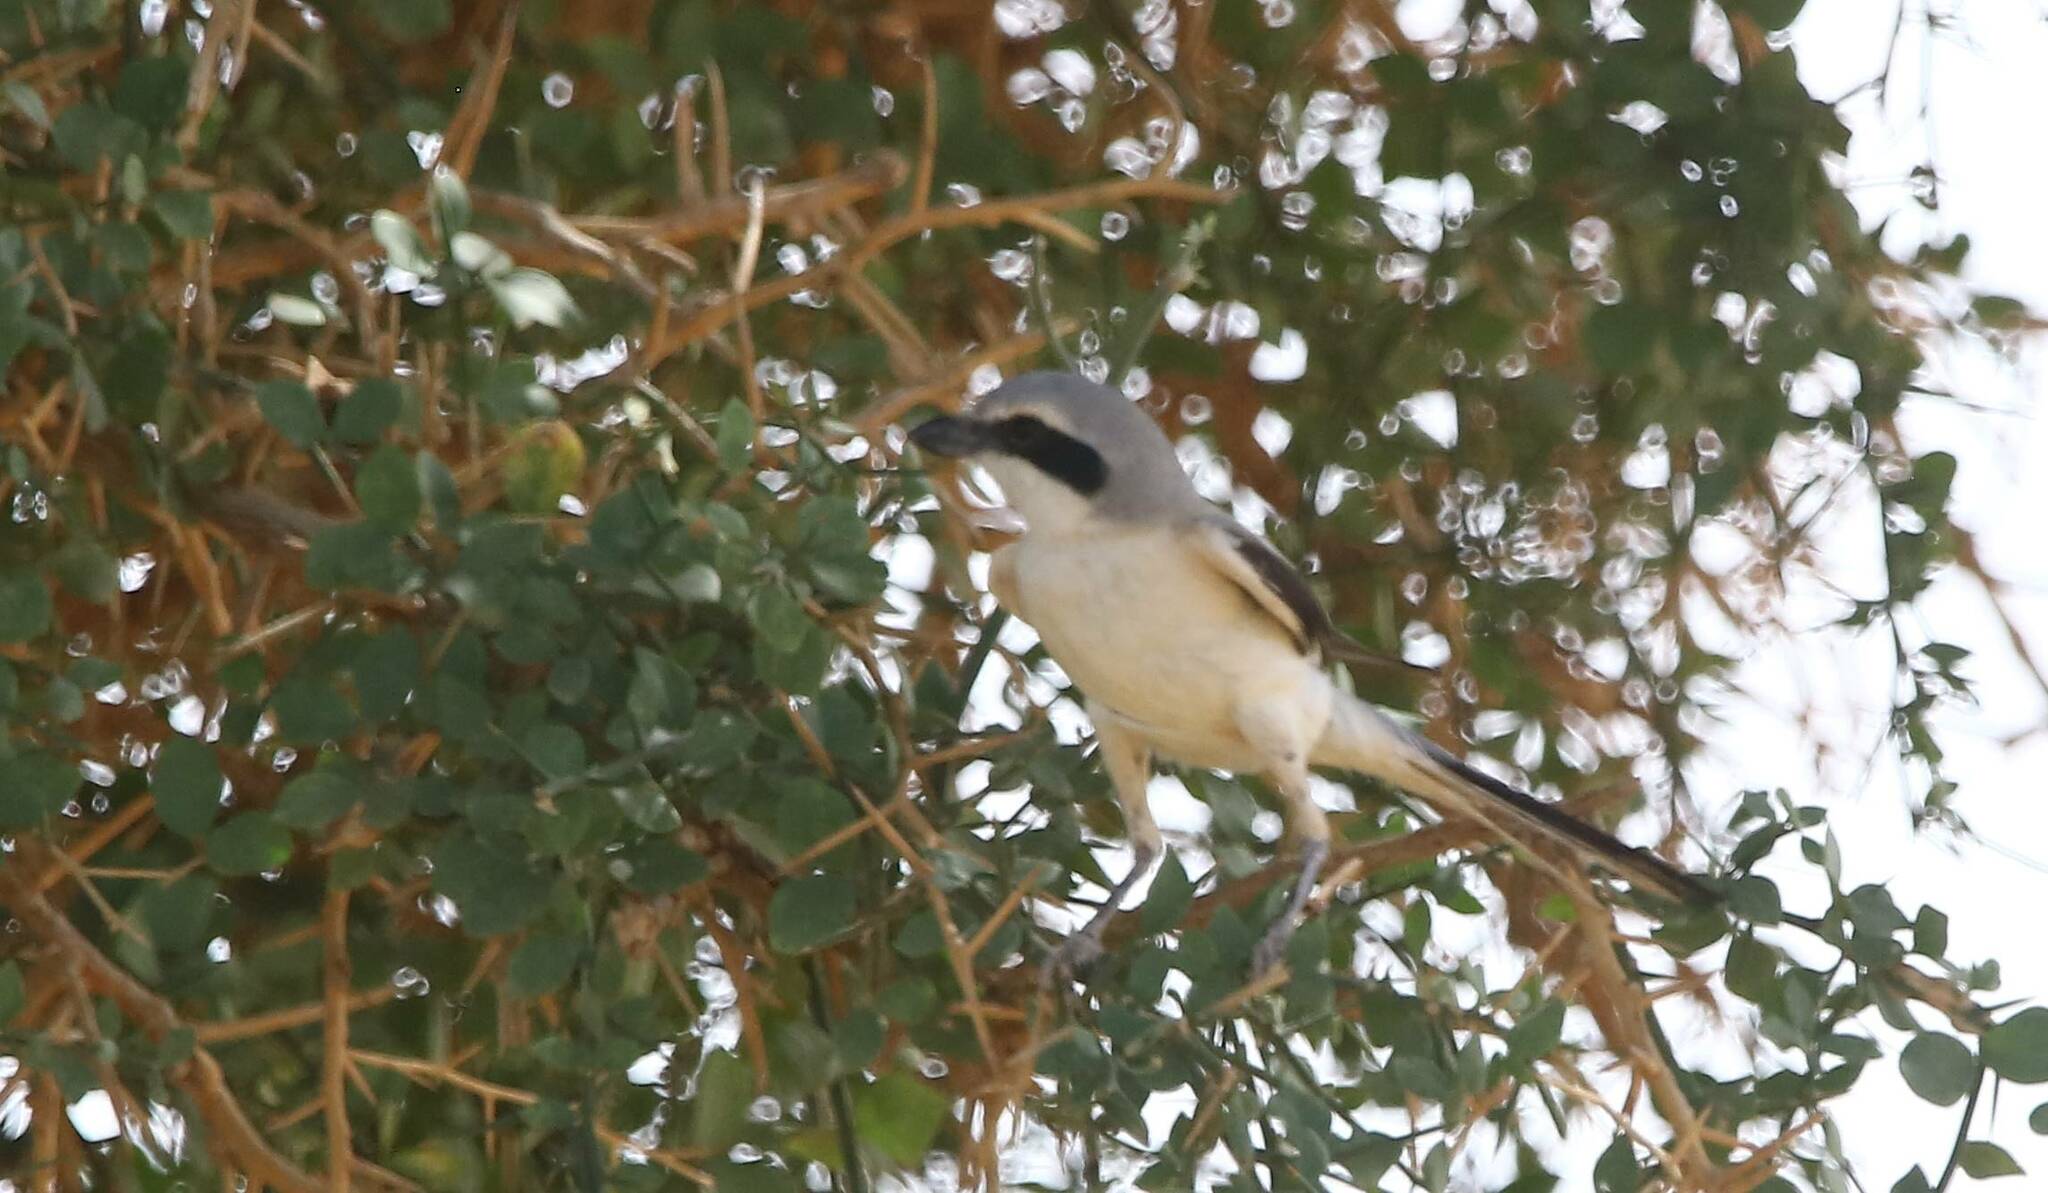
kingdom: Animalia
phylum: Chordata
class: Aves
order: Passeriformes
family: Laniidae
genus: Lanius
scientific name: Lanius excubitor
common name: Great grey shrike
